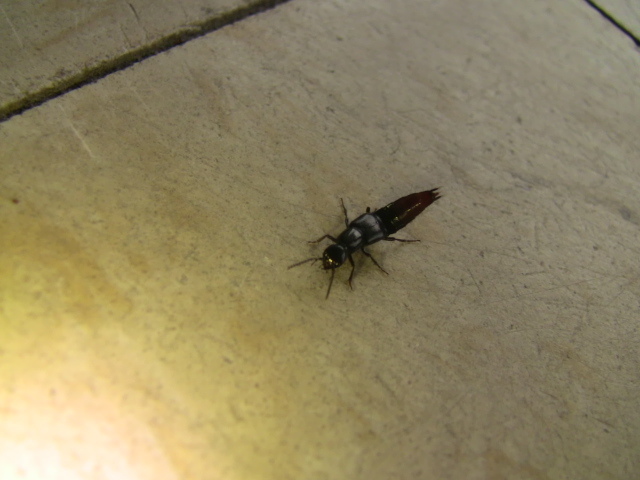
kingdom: Animalia
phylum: Arthropoda
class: Insecta
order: Coleoptera
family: Staphylinidae
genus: Hesperus
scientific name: Hesperus apicialis
